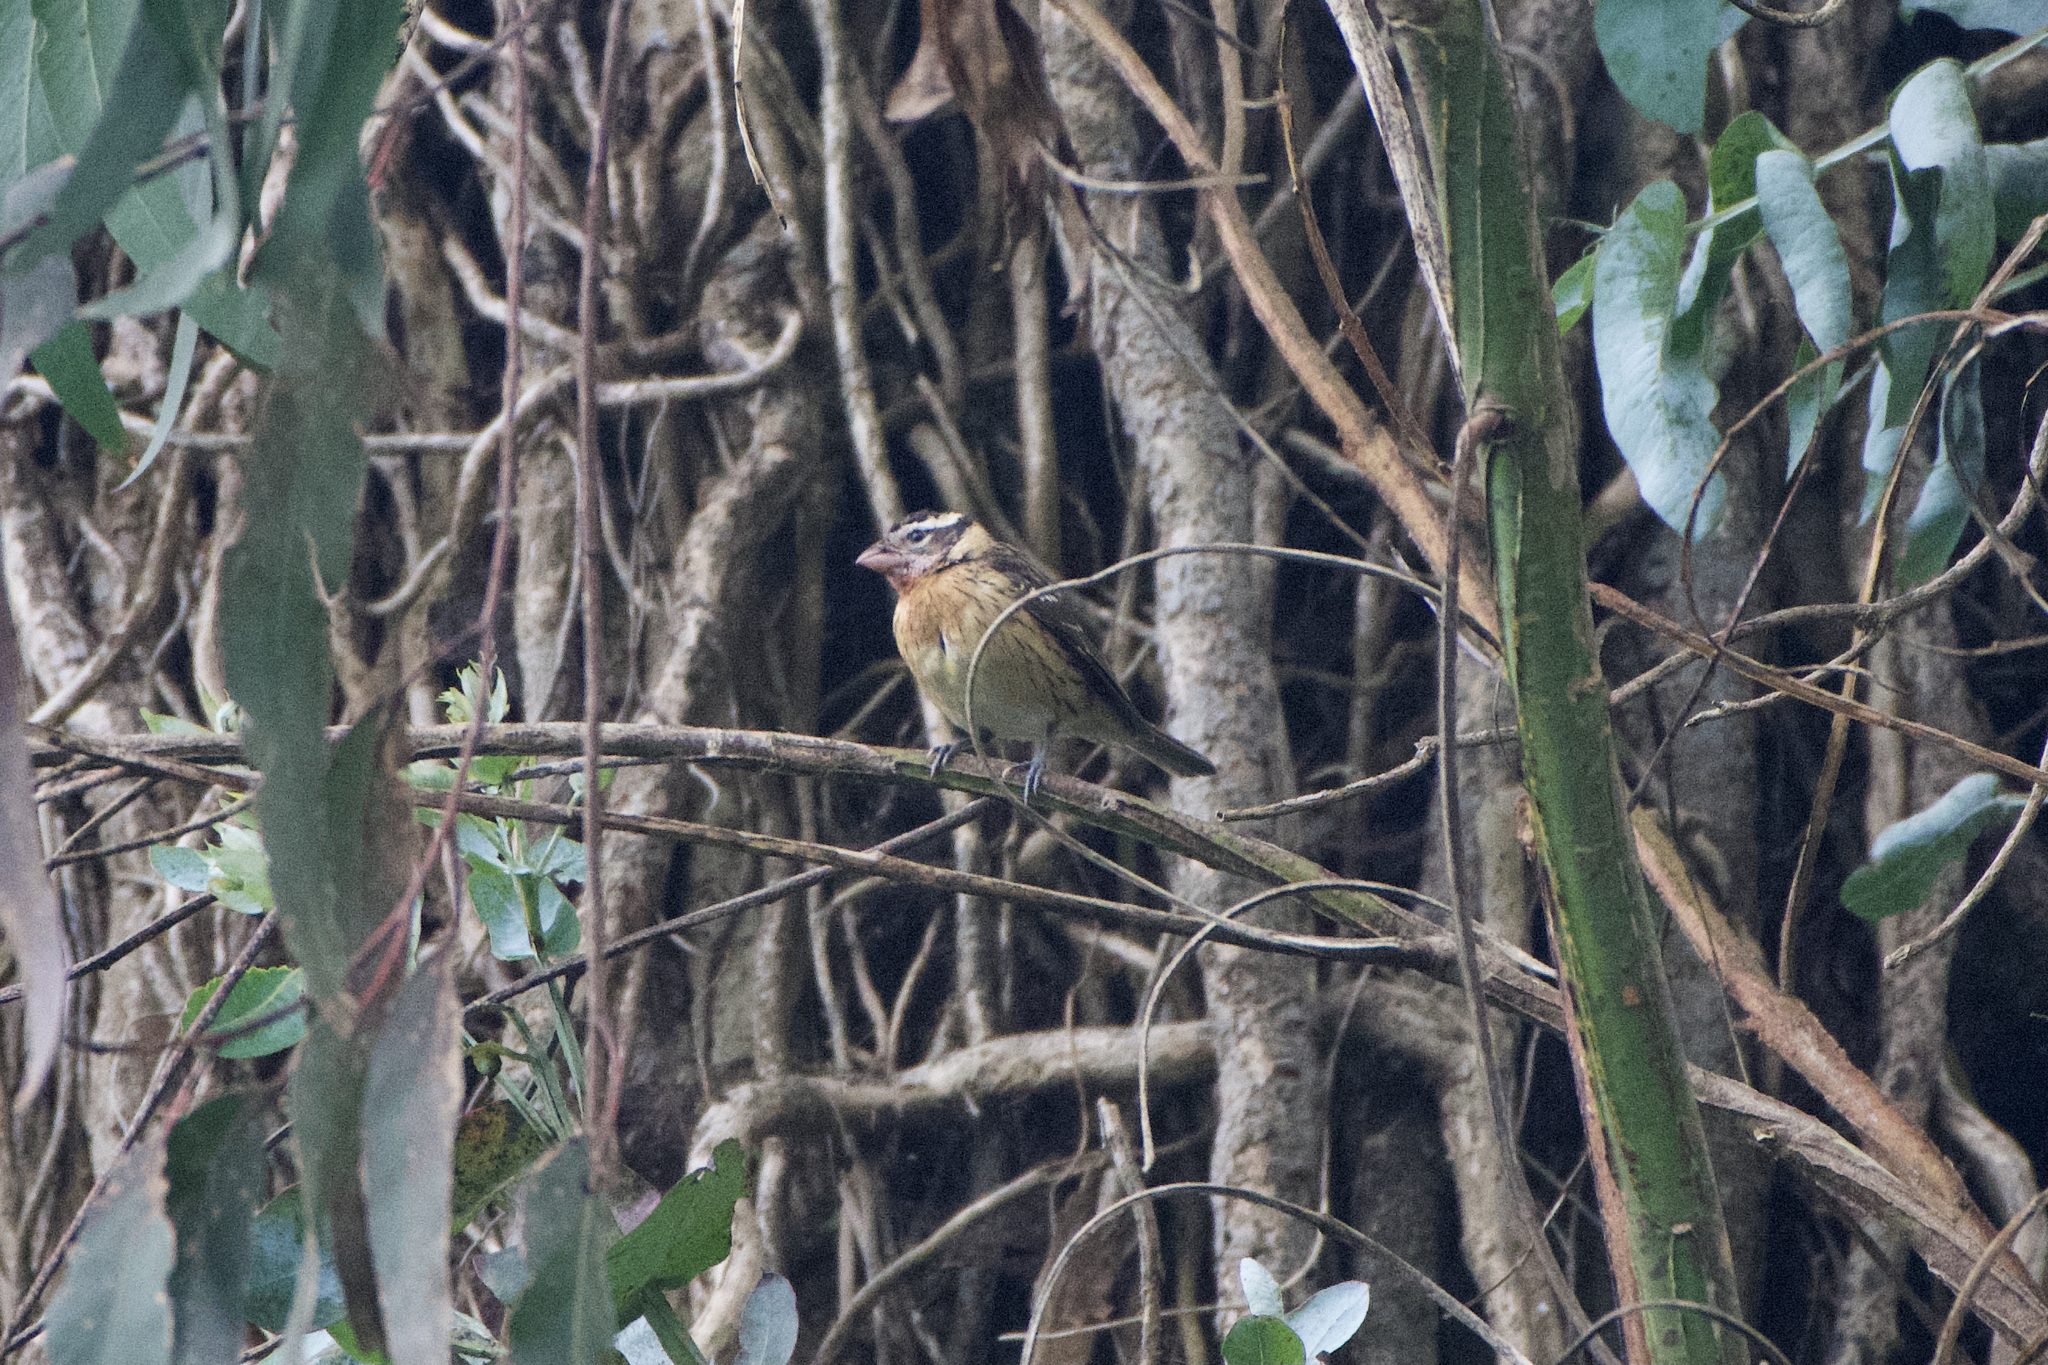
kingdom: Animalia
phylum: Chordata
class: Aves
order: Passeriformes
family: Cardinalidae
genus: Pheucticus
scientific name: Pheucticus melanocephalus
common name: Black-headed grosbeak
